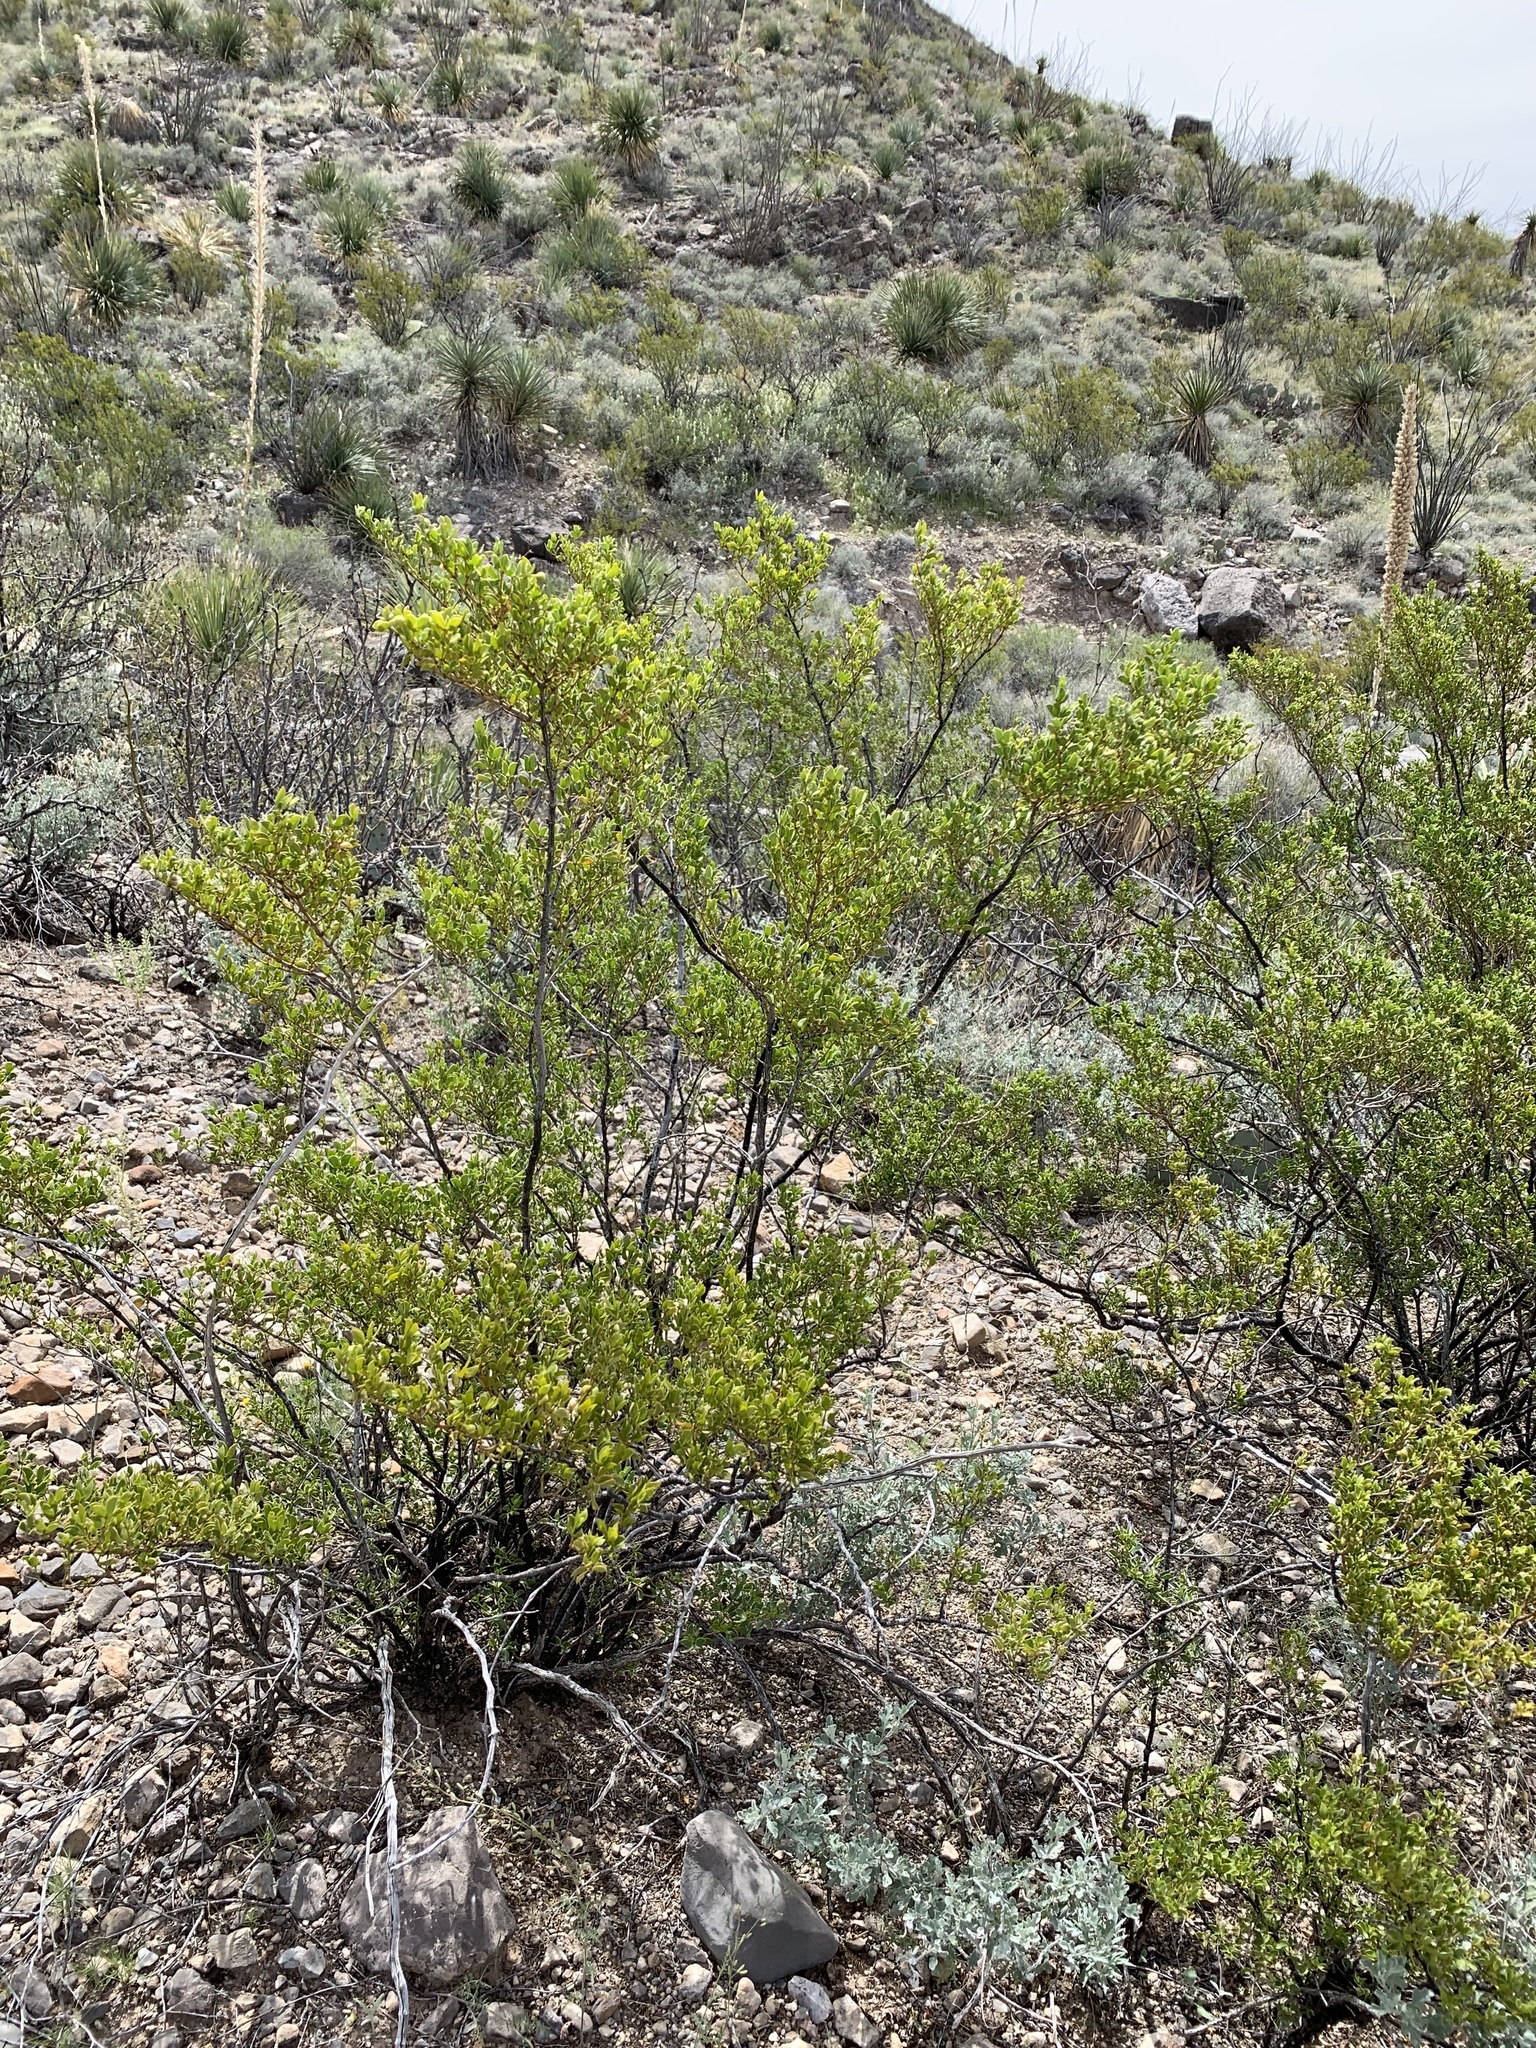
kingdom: Plantae
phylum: Tracheophyta
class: Magnoliopsida
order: Zygophyllales
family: Zygophyllaceae
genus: Larrea
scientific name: Larrea tridentata
